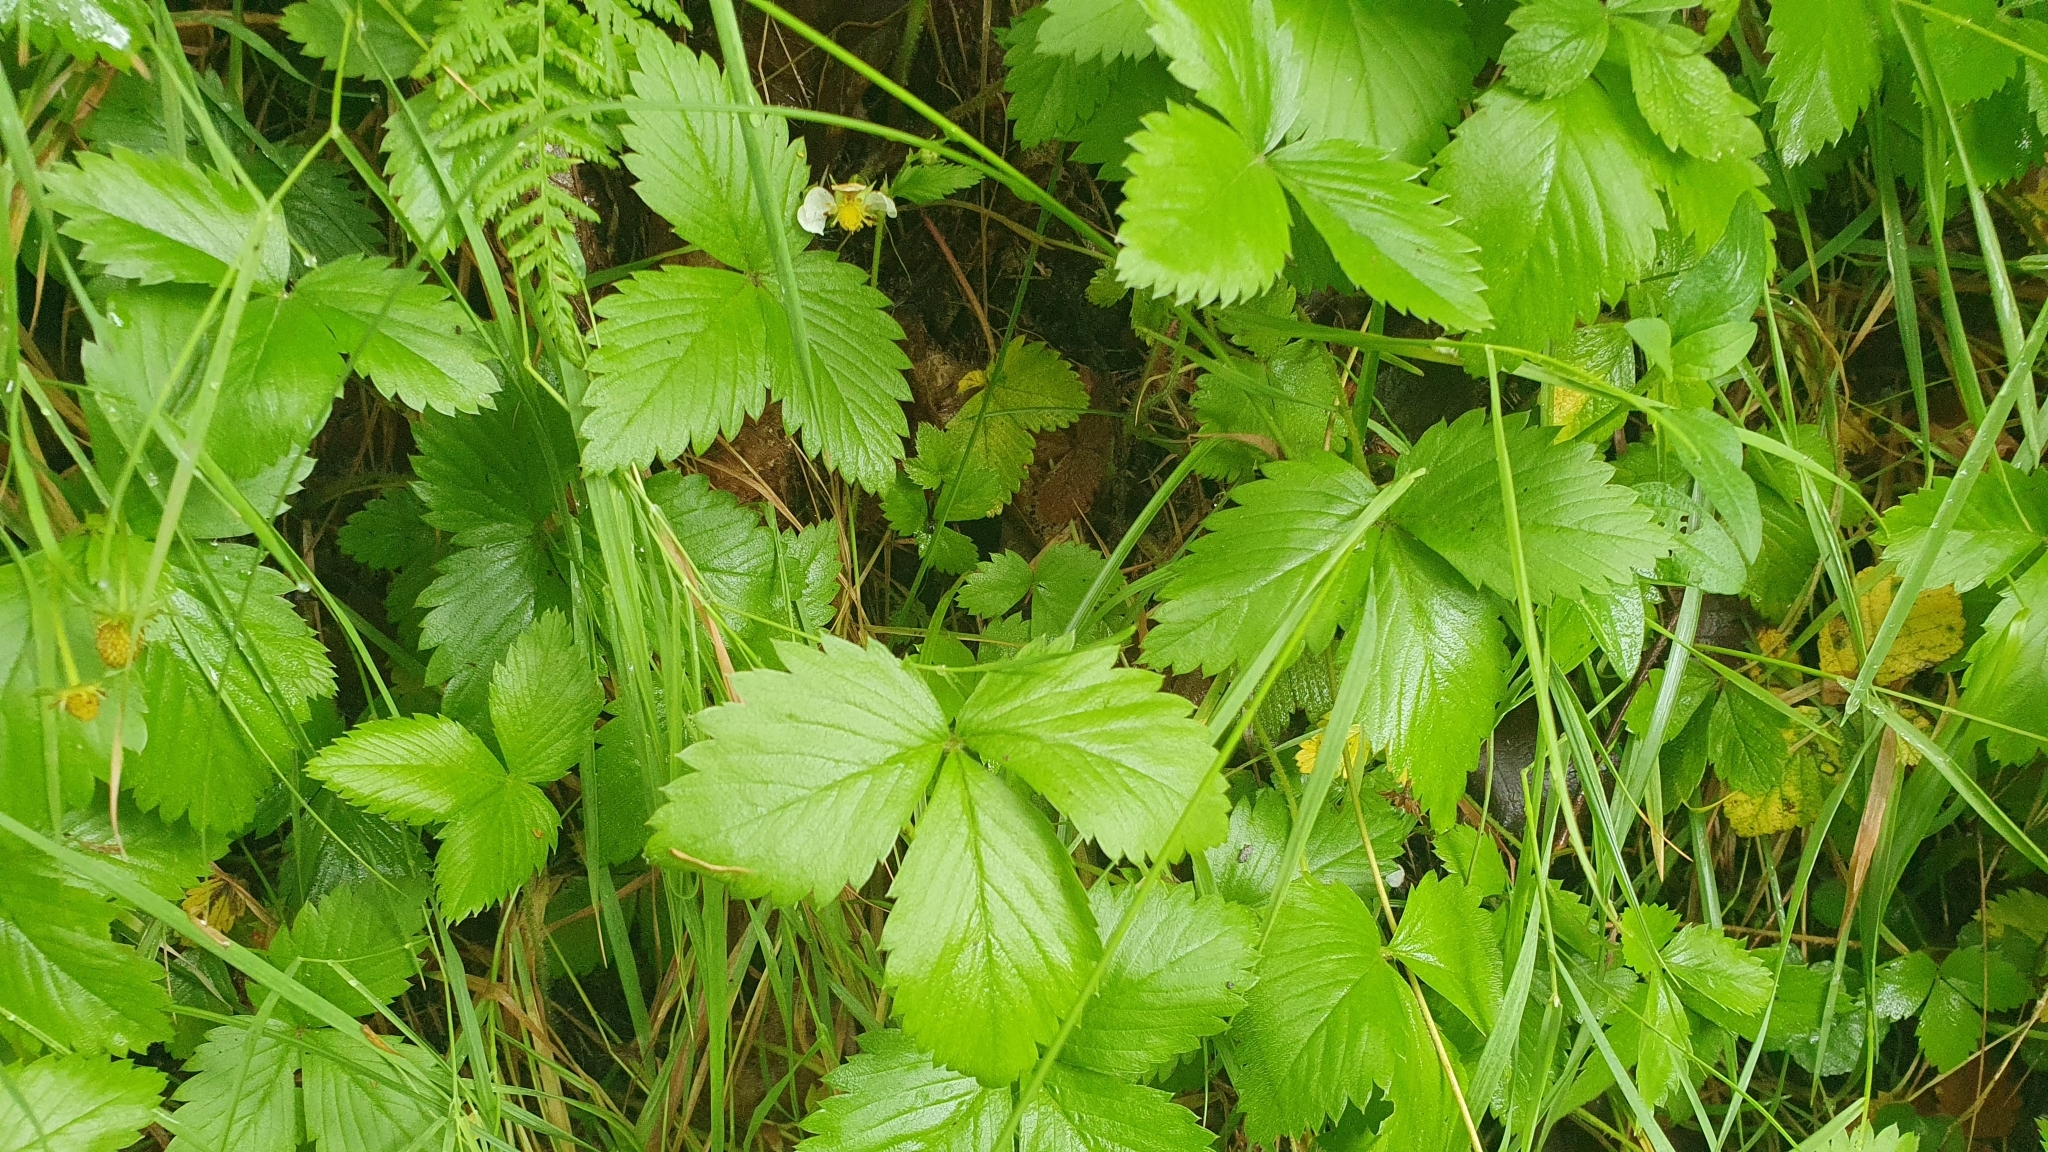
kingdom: Plantae
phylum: Tracheophyta
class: Magnoliopsida
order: Rosales
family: Rosaceae
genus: Fragaria
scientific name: Fragaria vesca
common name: Wild strawberry
